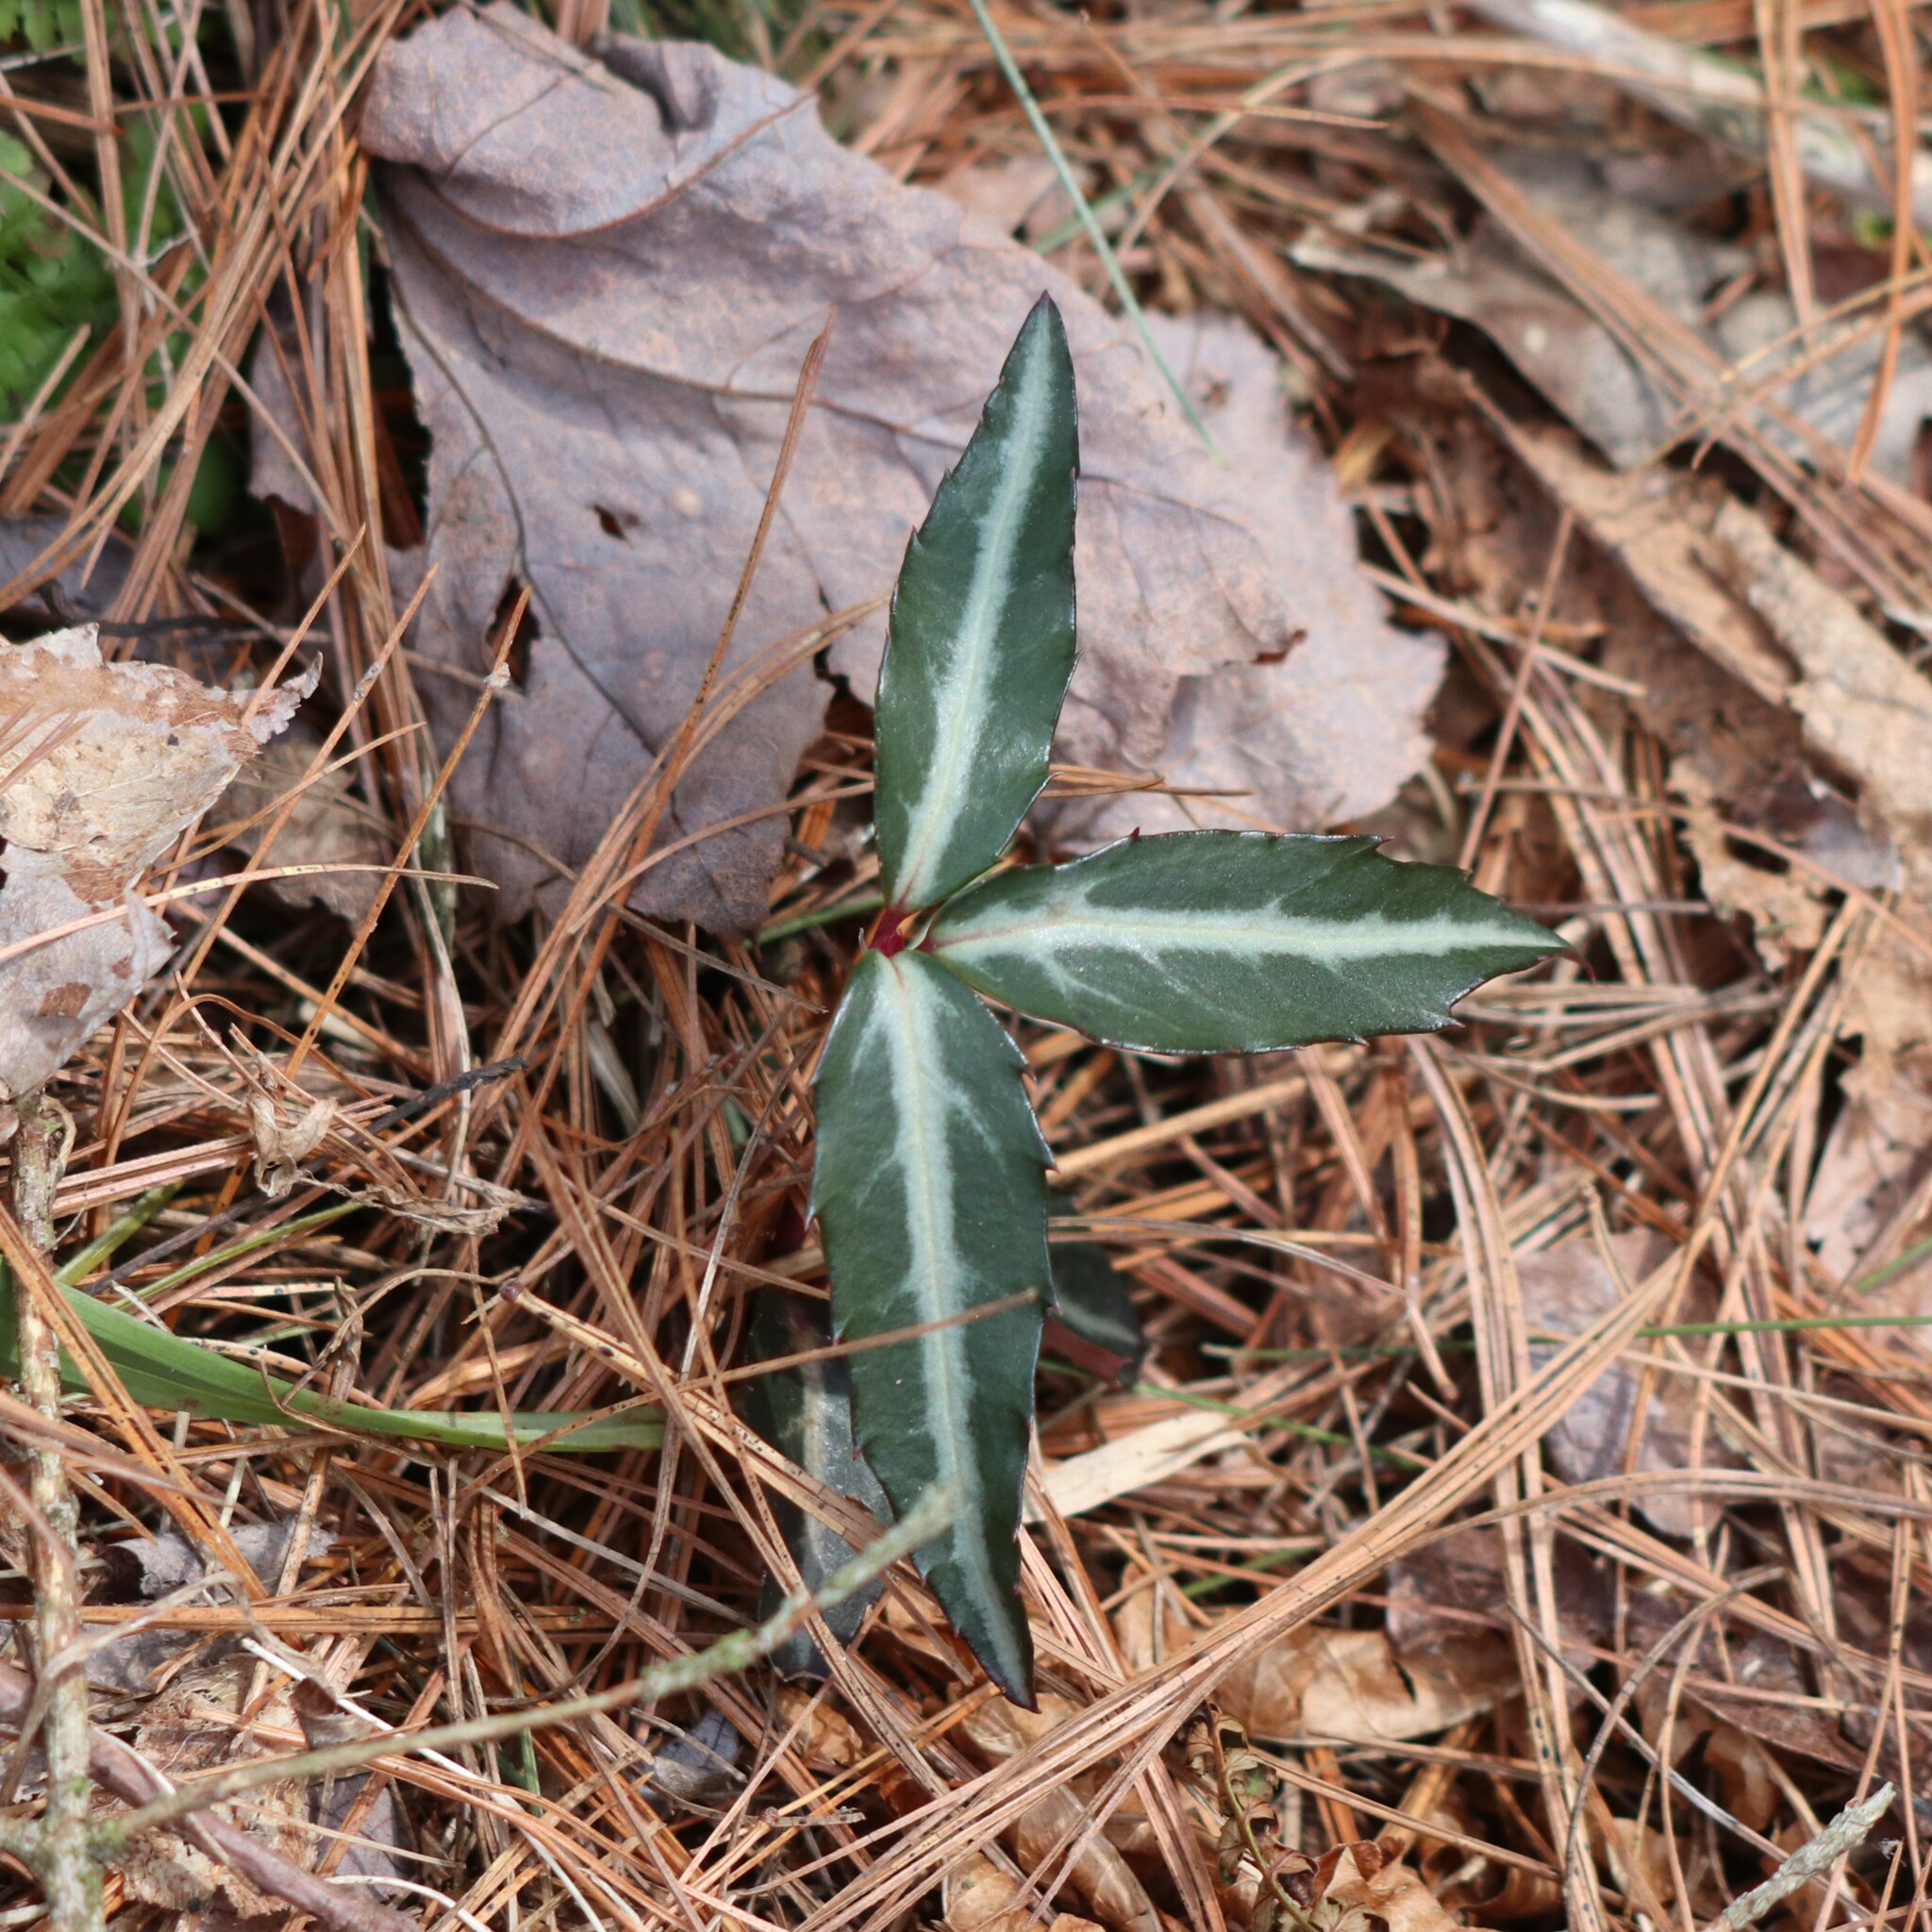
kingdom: Plantae
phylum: Tracheophyta
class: Magnoliopsida
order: Ericales
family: Ericaceae
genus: Chimaphila
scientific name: Chimaphila maculata
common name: Spotted pipsissewa
